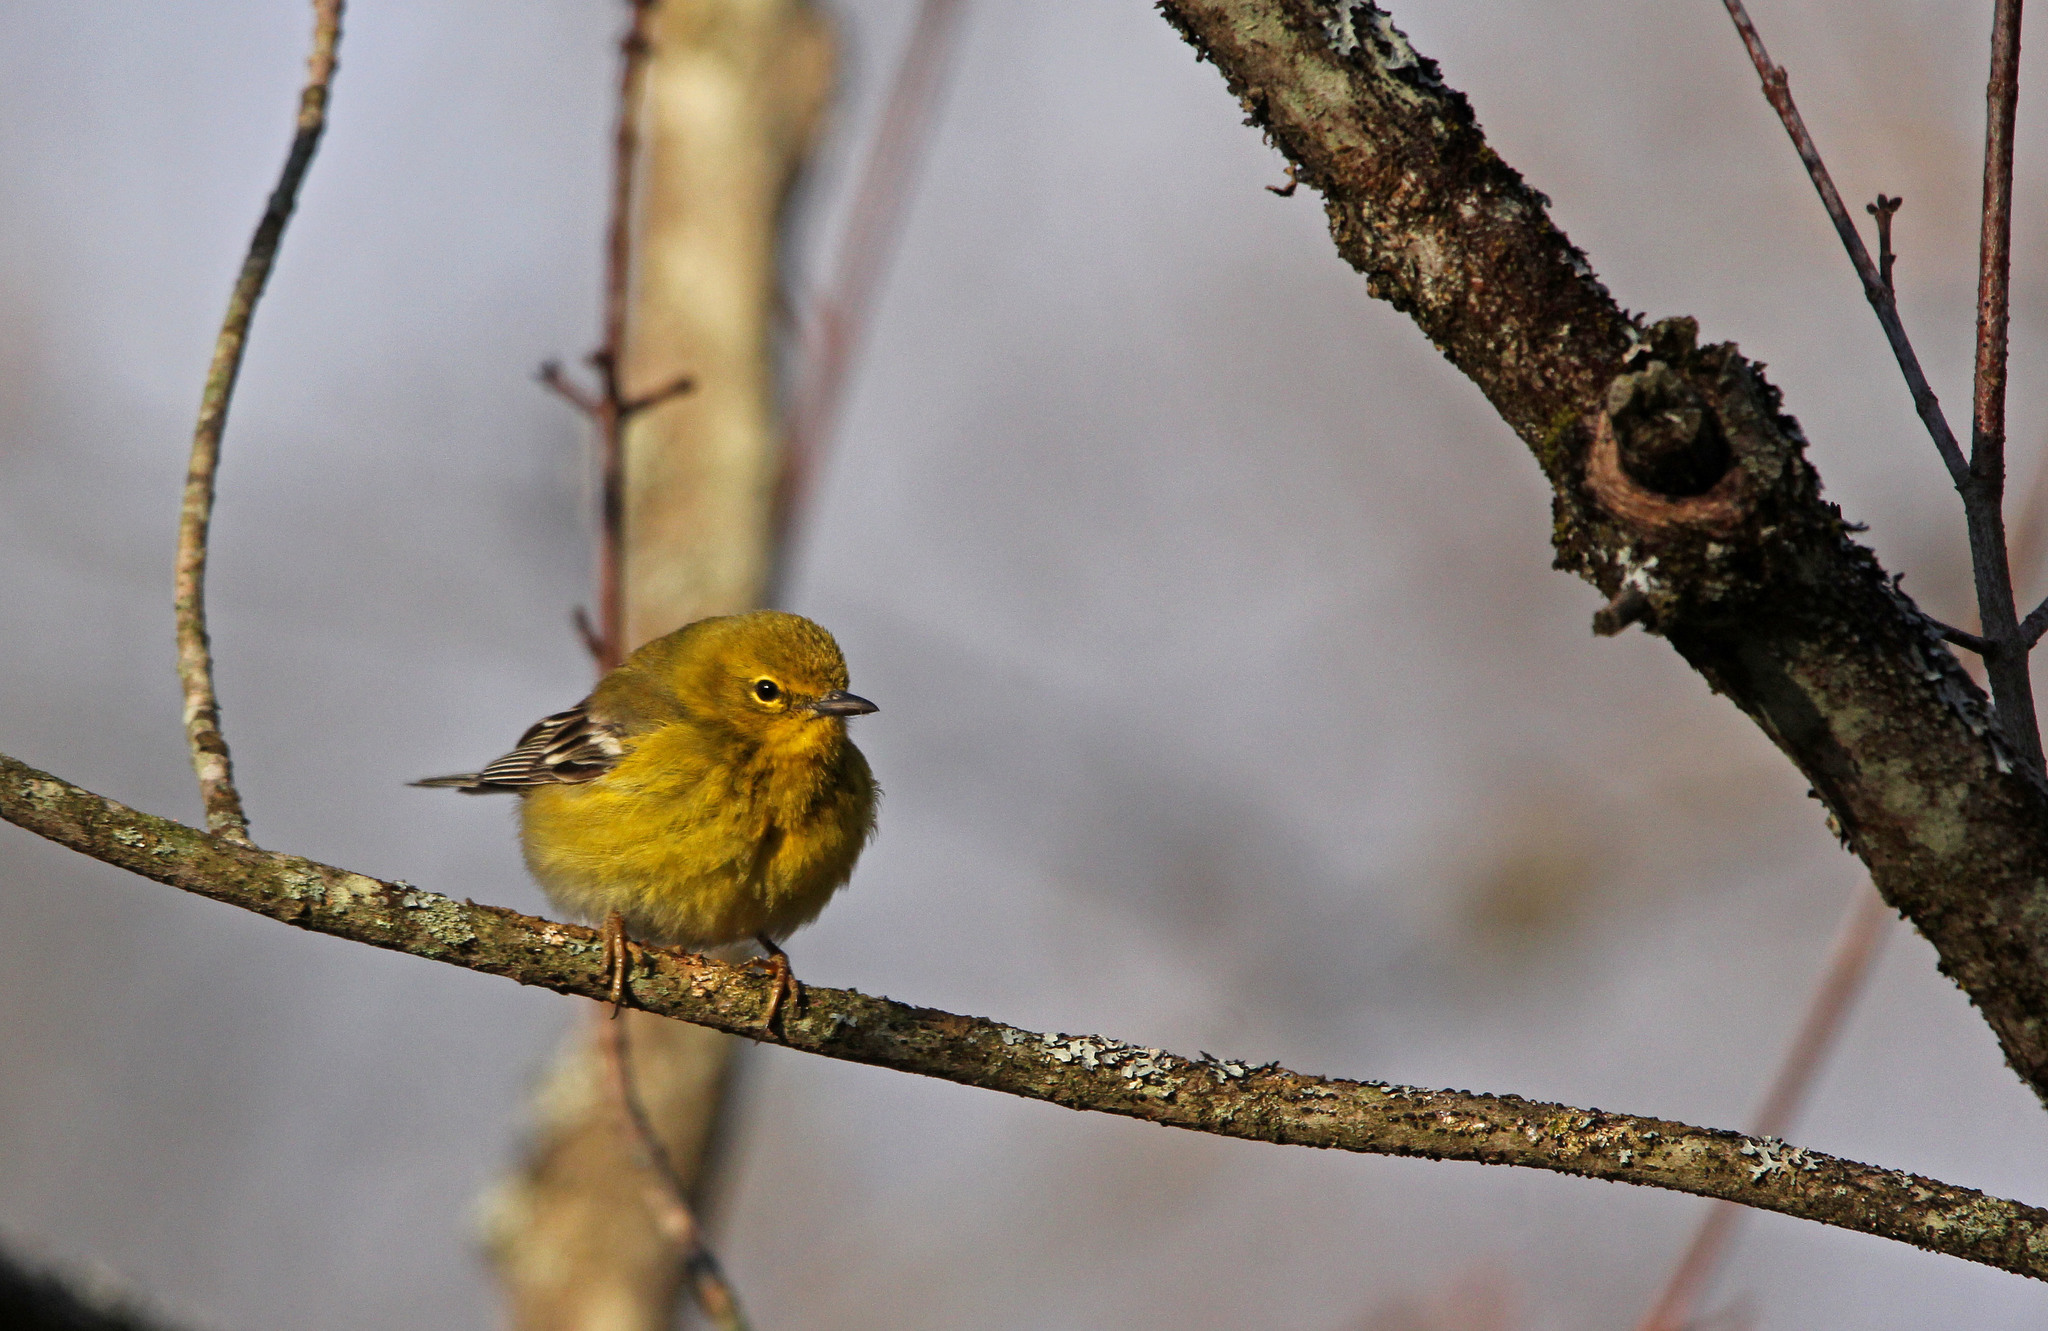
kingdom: Animalia
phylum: Chordata
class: Aves
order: Passeriformes
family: Parulidae
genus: Setophaga
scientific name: Setophaga pinus
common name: Pine warbler
